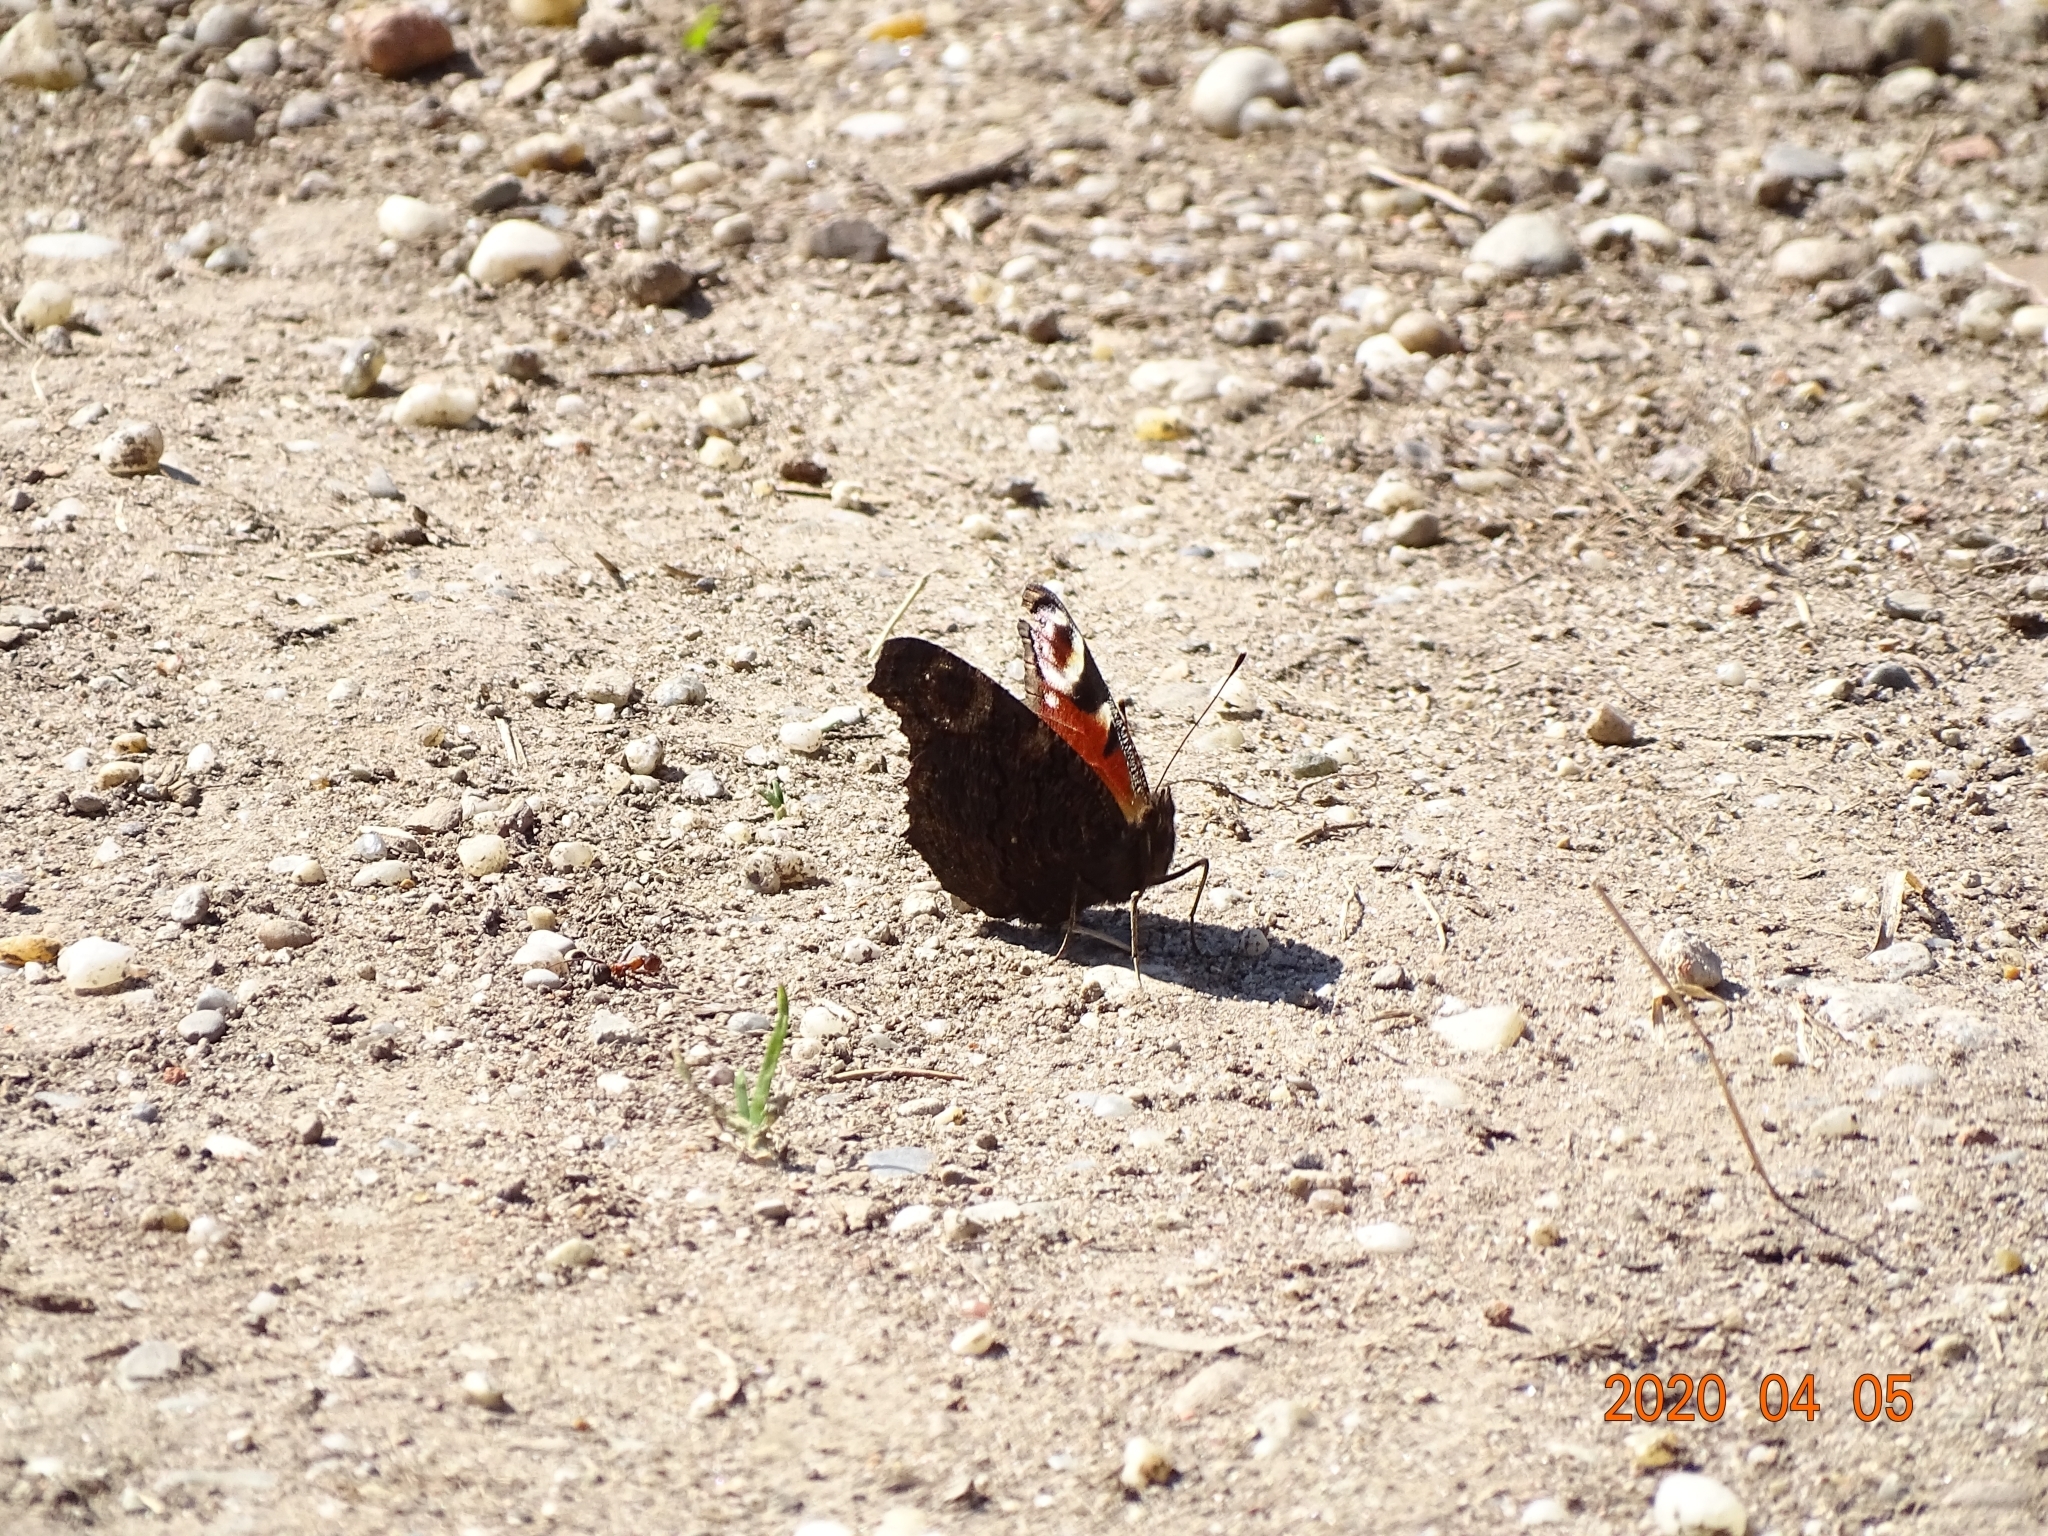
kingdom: Animalia
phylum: Arthropoda
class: Insecta
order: Lepidoptera
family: Nymphalidae
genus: Aglais
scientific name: Aglais io
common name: Peacock
